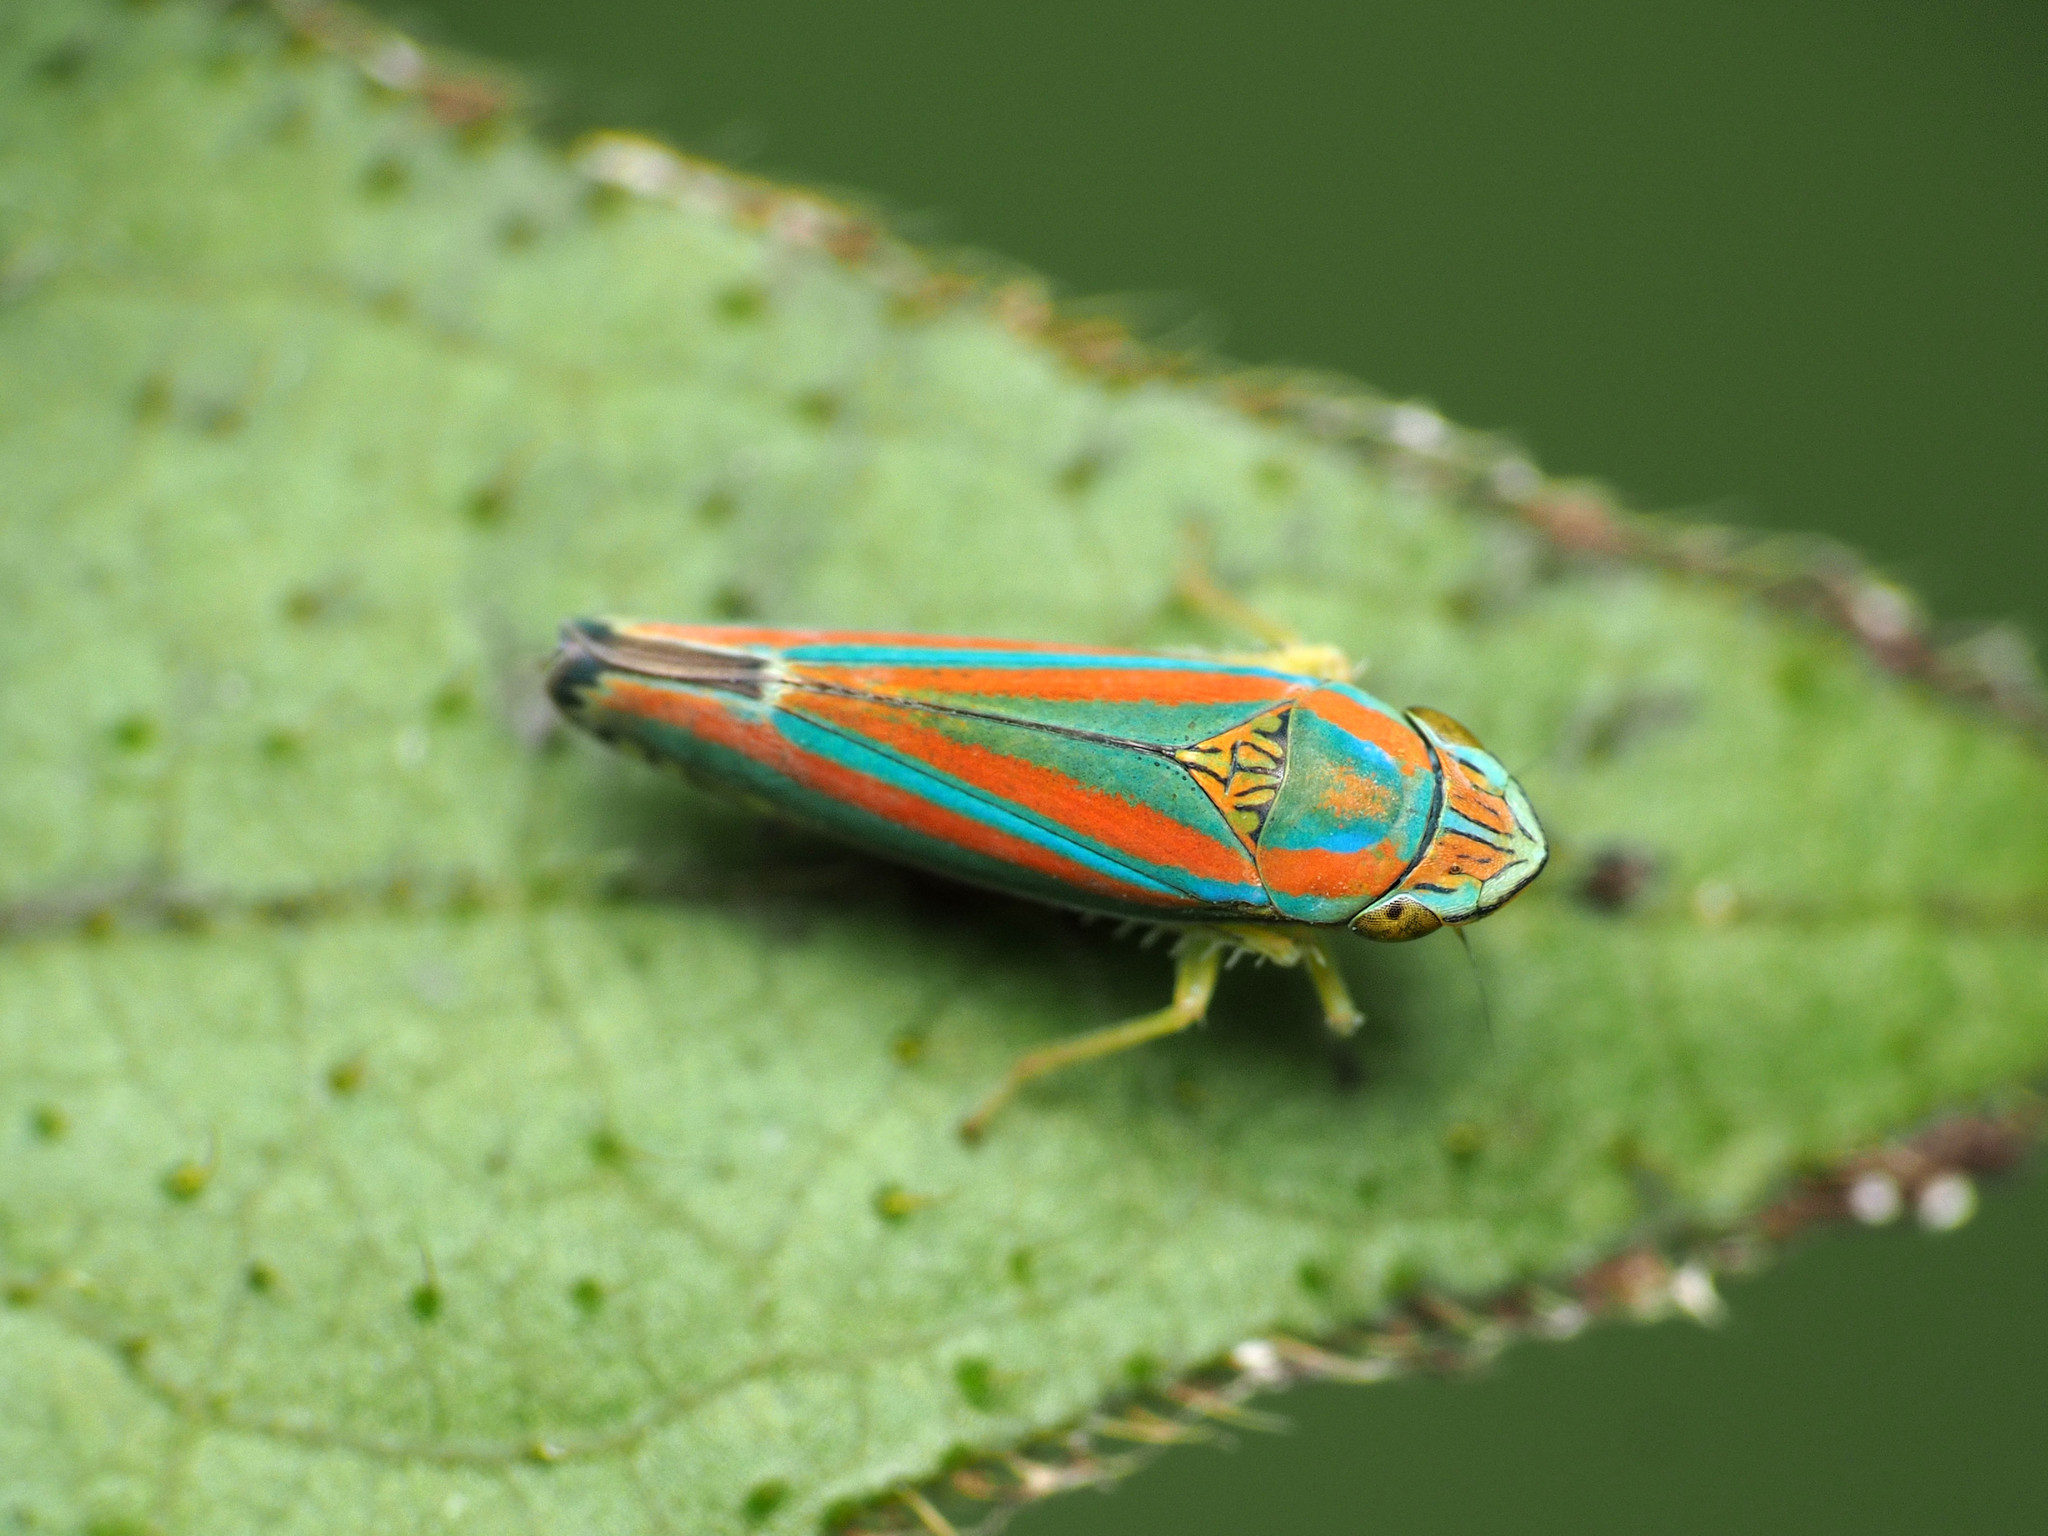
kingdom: Animalia
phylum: Arthropoda
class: Insecta
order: Hemiptera
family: Cicadellidae
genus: Graphocephala
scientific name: Graphocephala versuta
